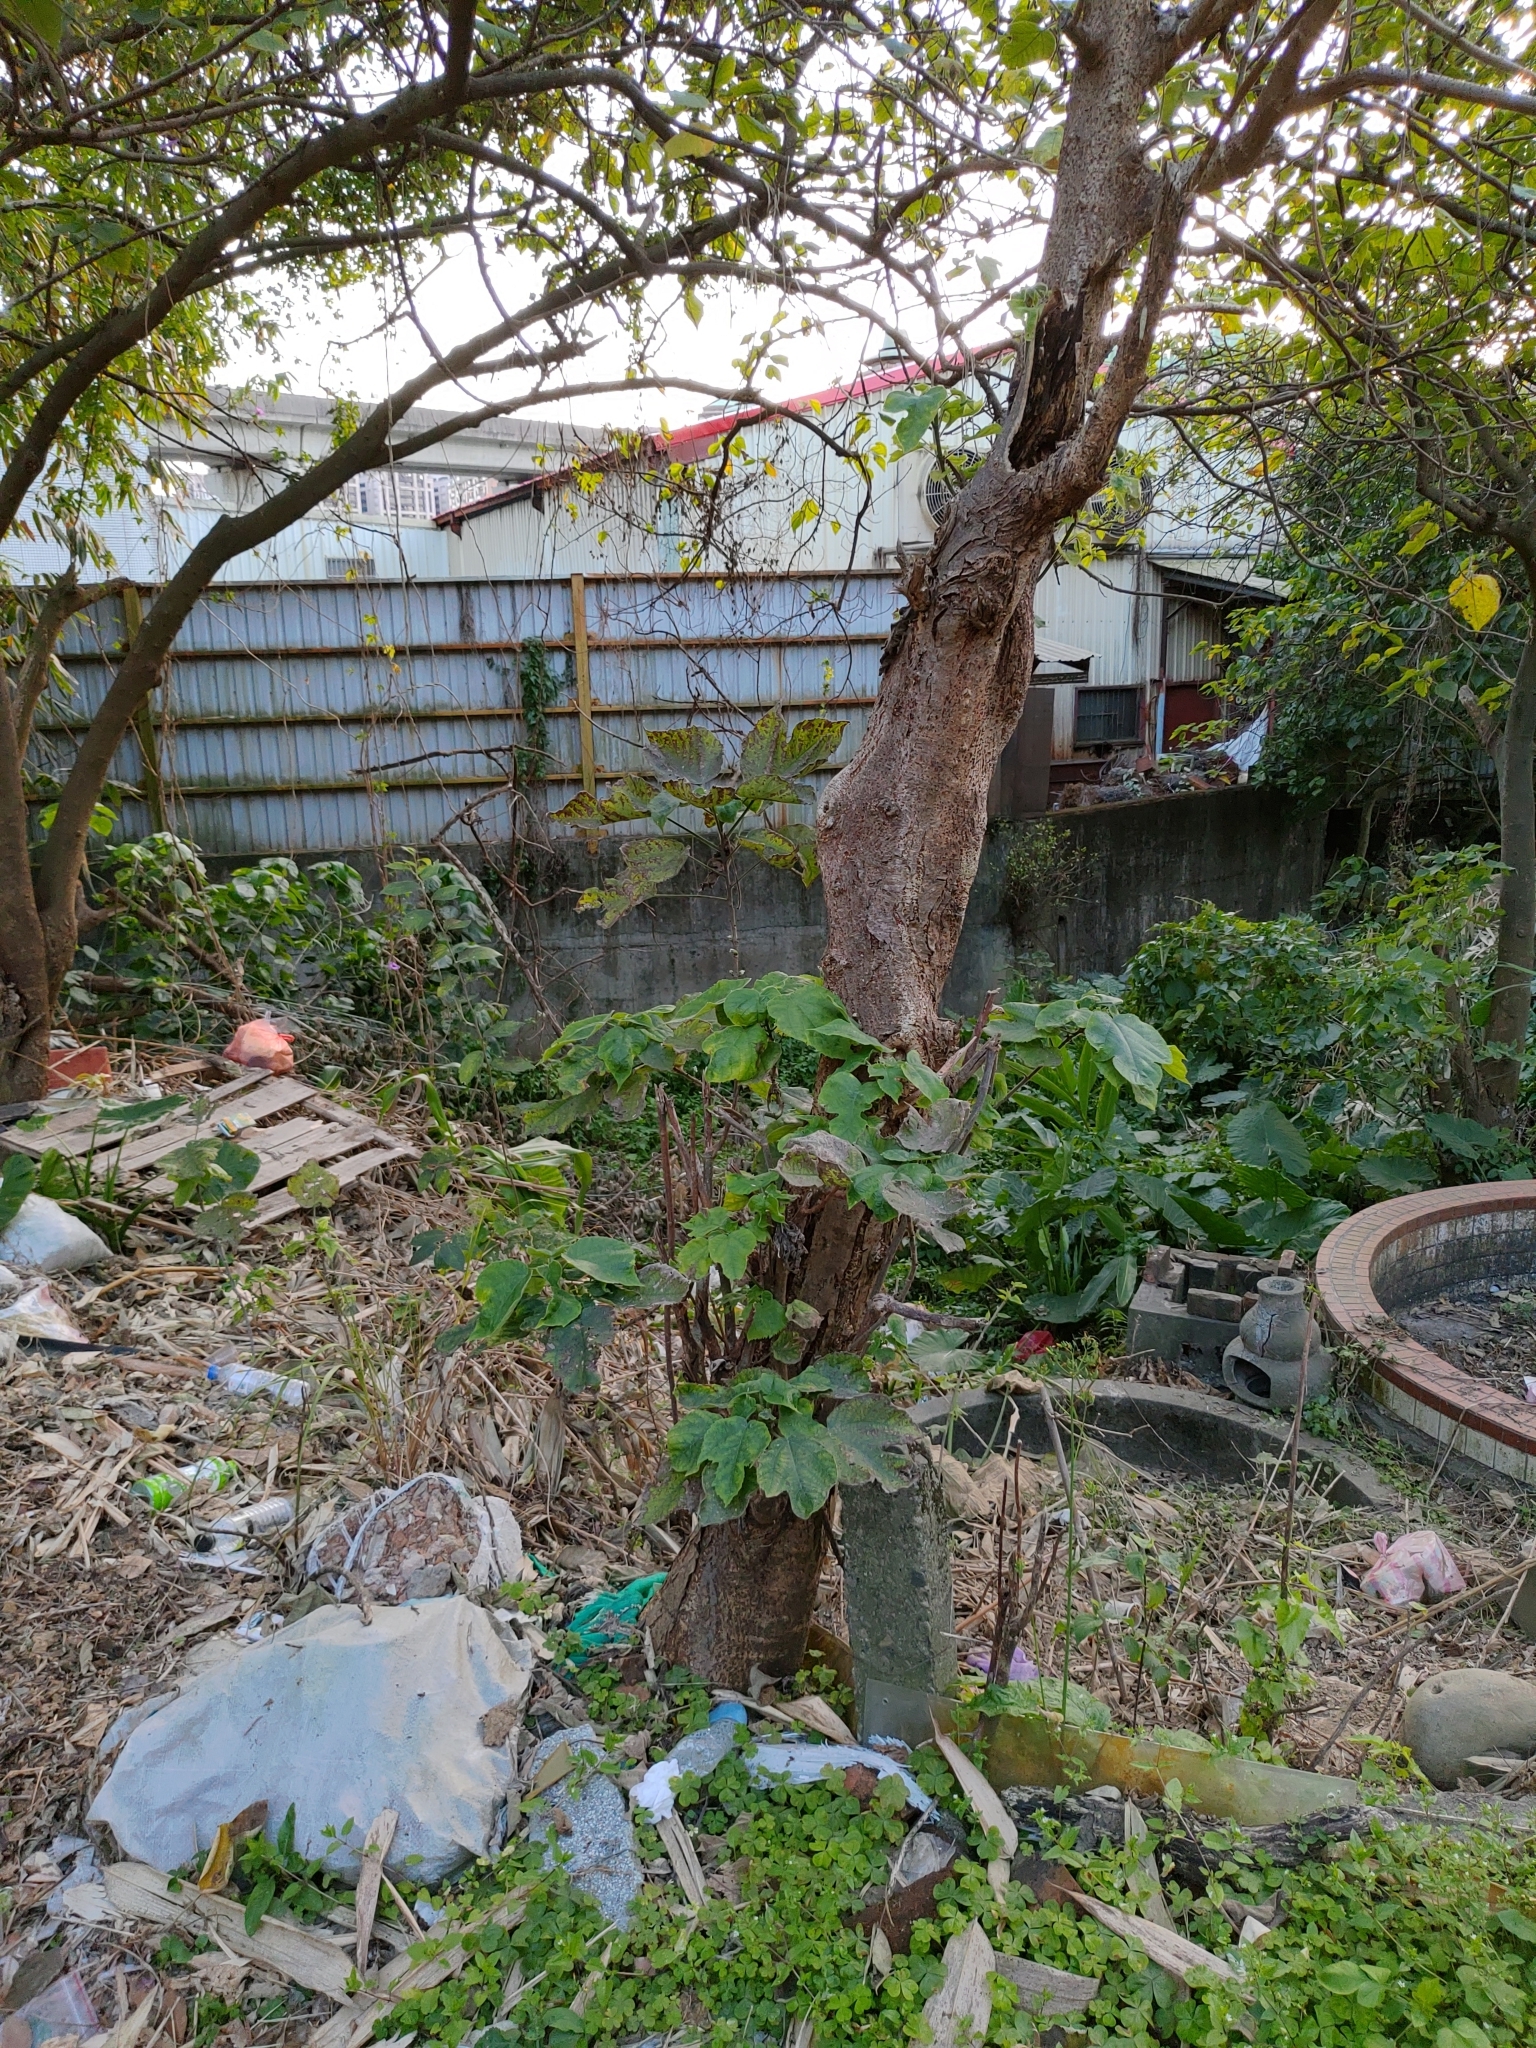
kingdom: Plantae
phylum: Tracheophyta
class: Magnoliopsida
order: Rosales
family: Moraceae
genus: Broussonetia
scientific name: Broussonetia papyrifera
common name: Paper mulberry
